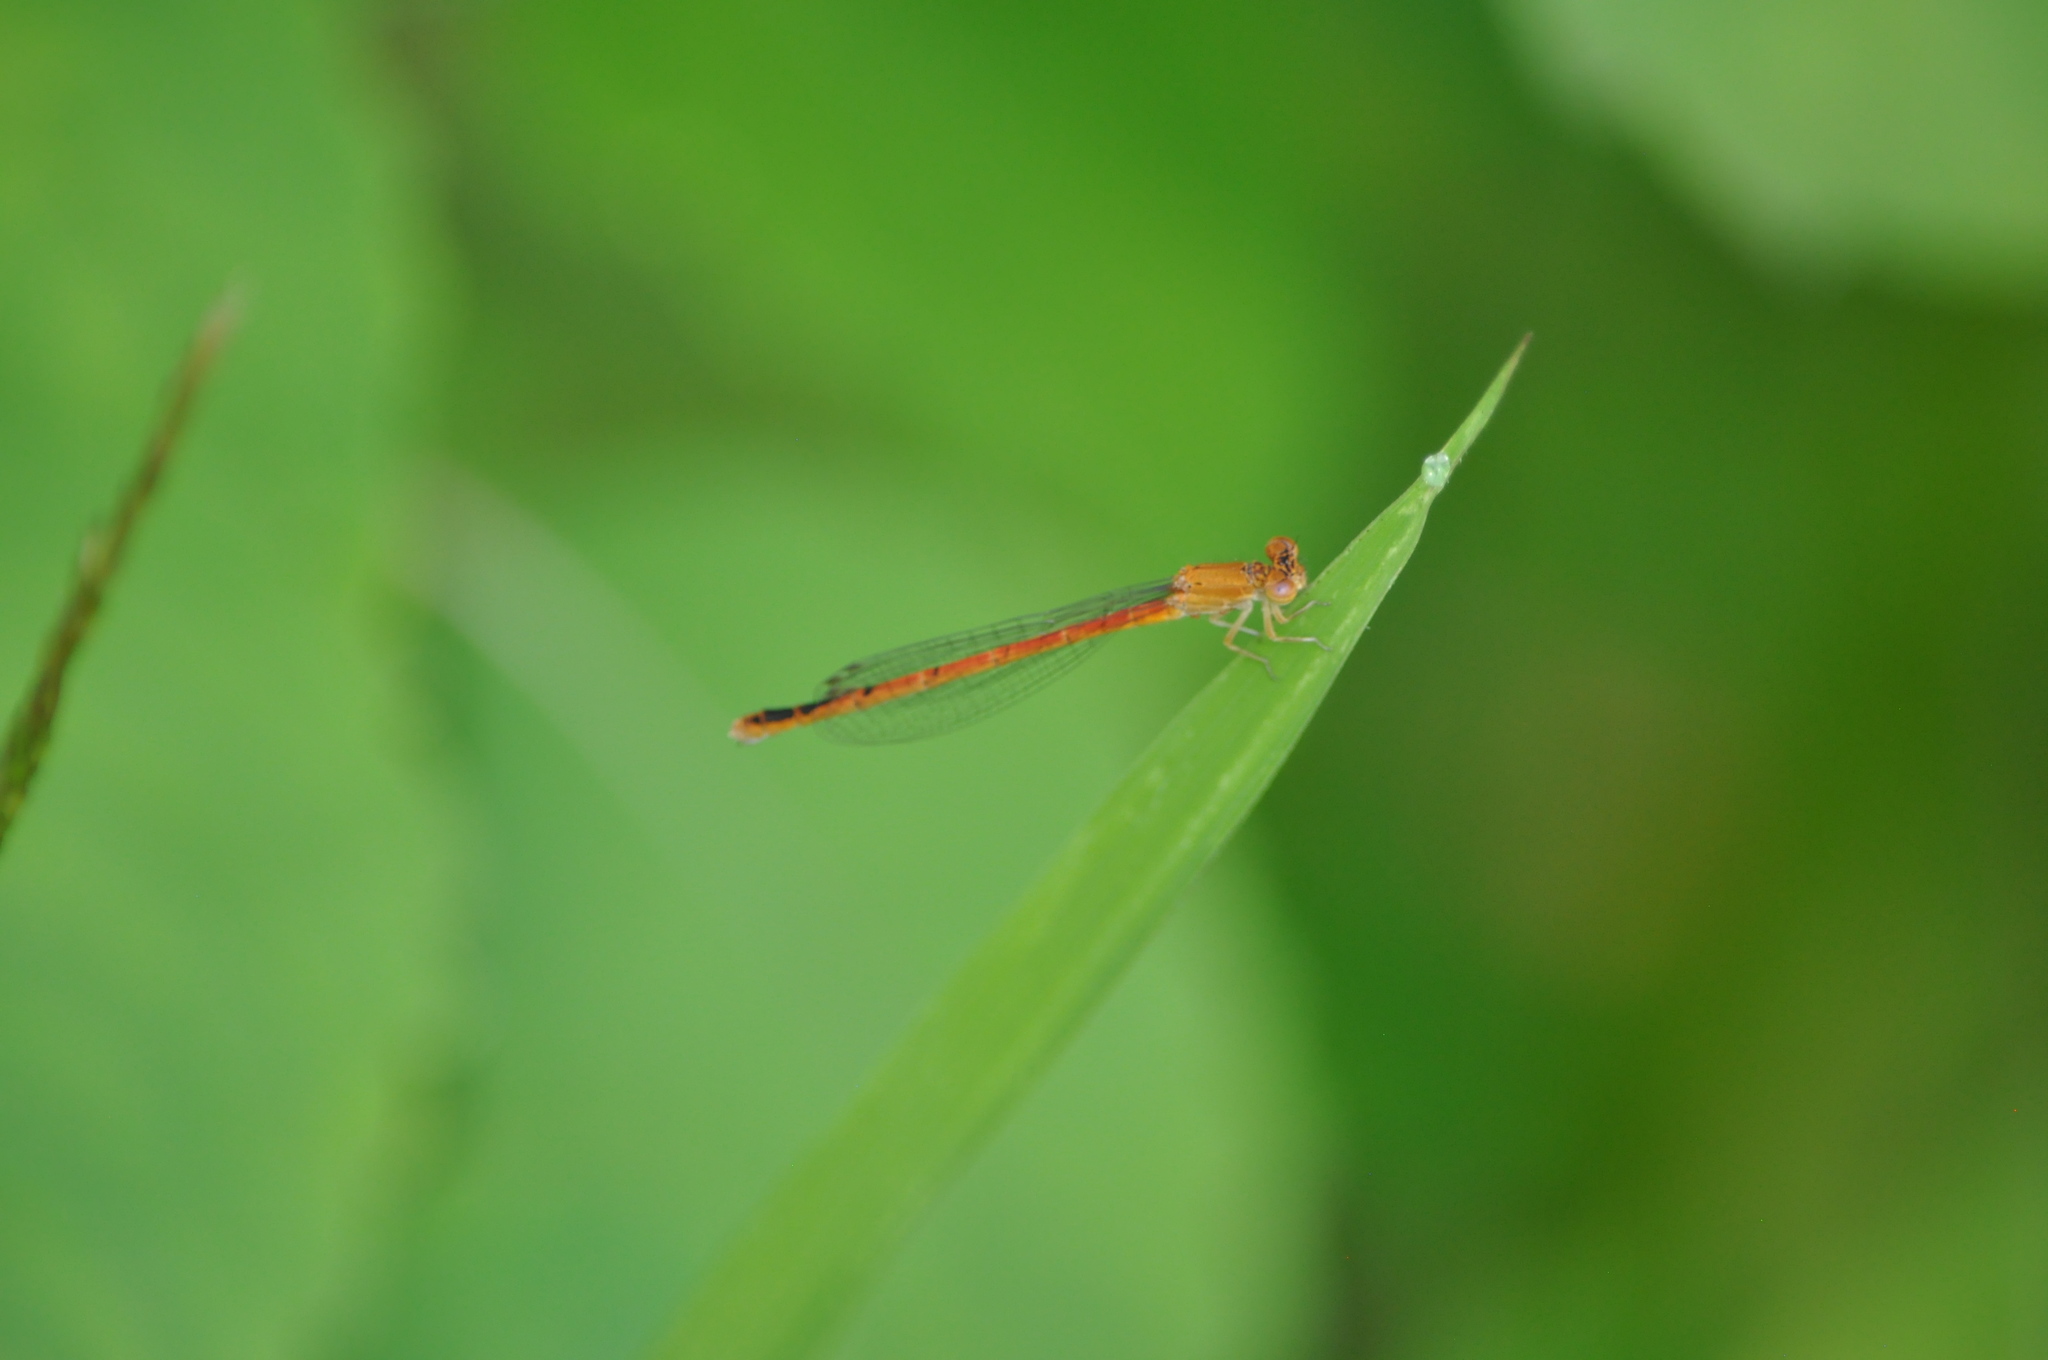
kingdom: Animalia
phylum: Arthropoda
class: Insecta
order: Odonata
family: Coenagrionidae
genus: Amphiagrion
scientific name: Amphiagrion saucium
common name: Eastern red damsel
